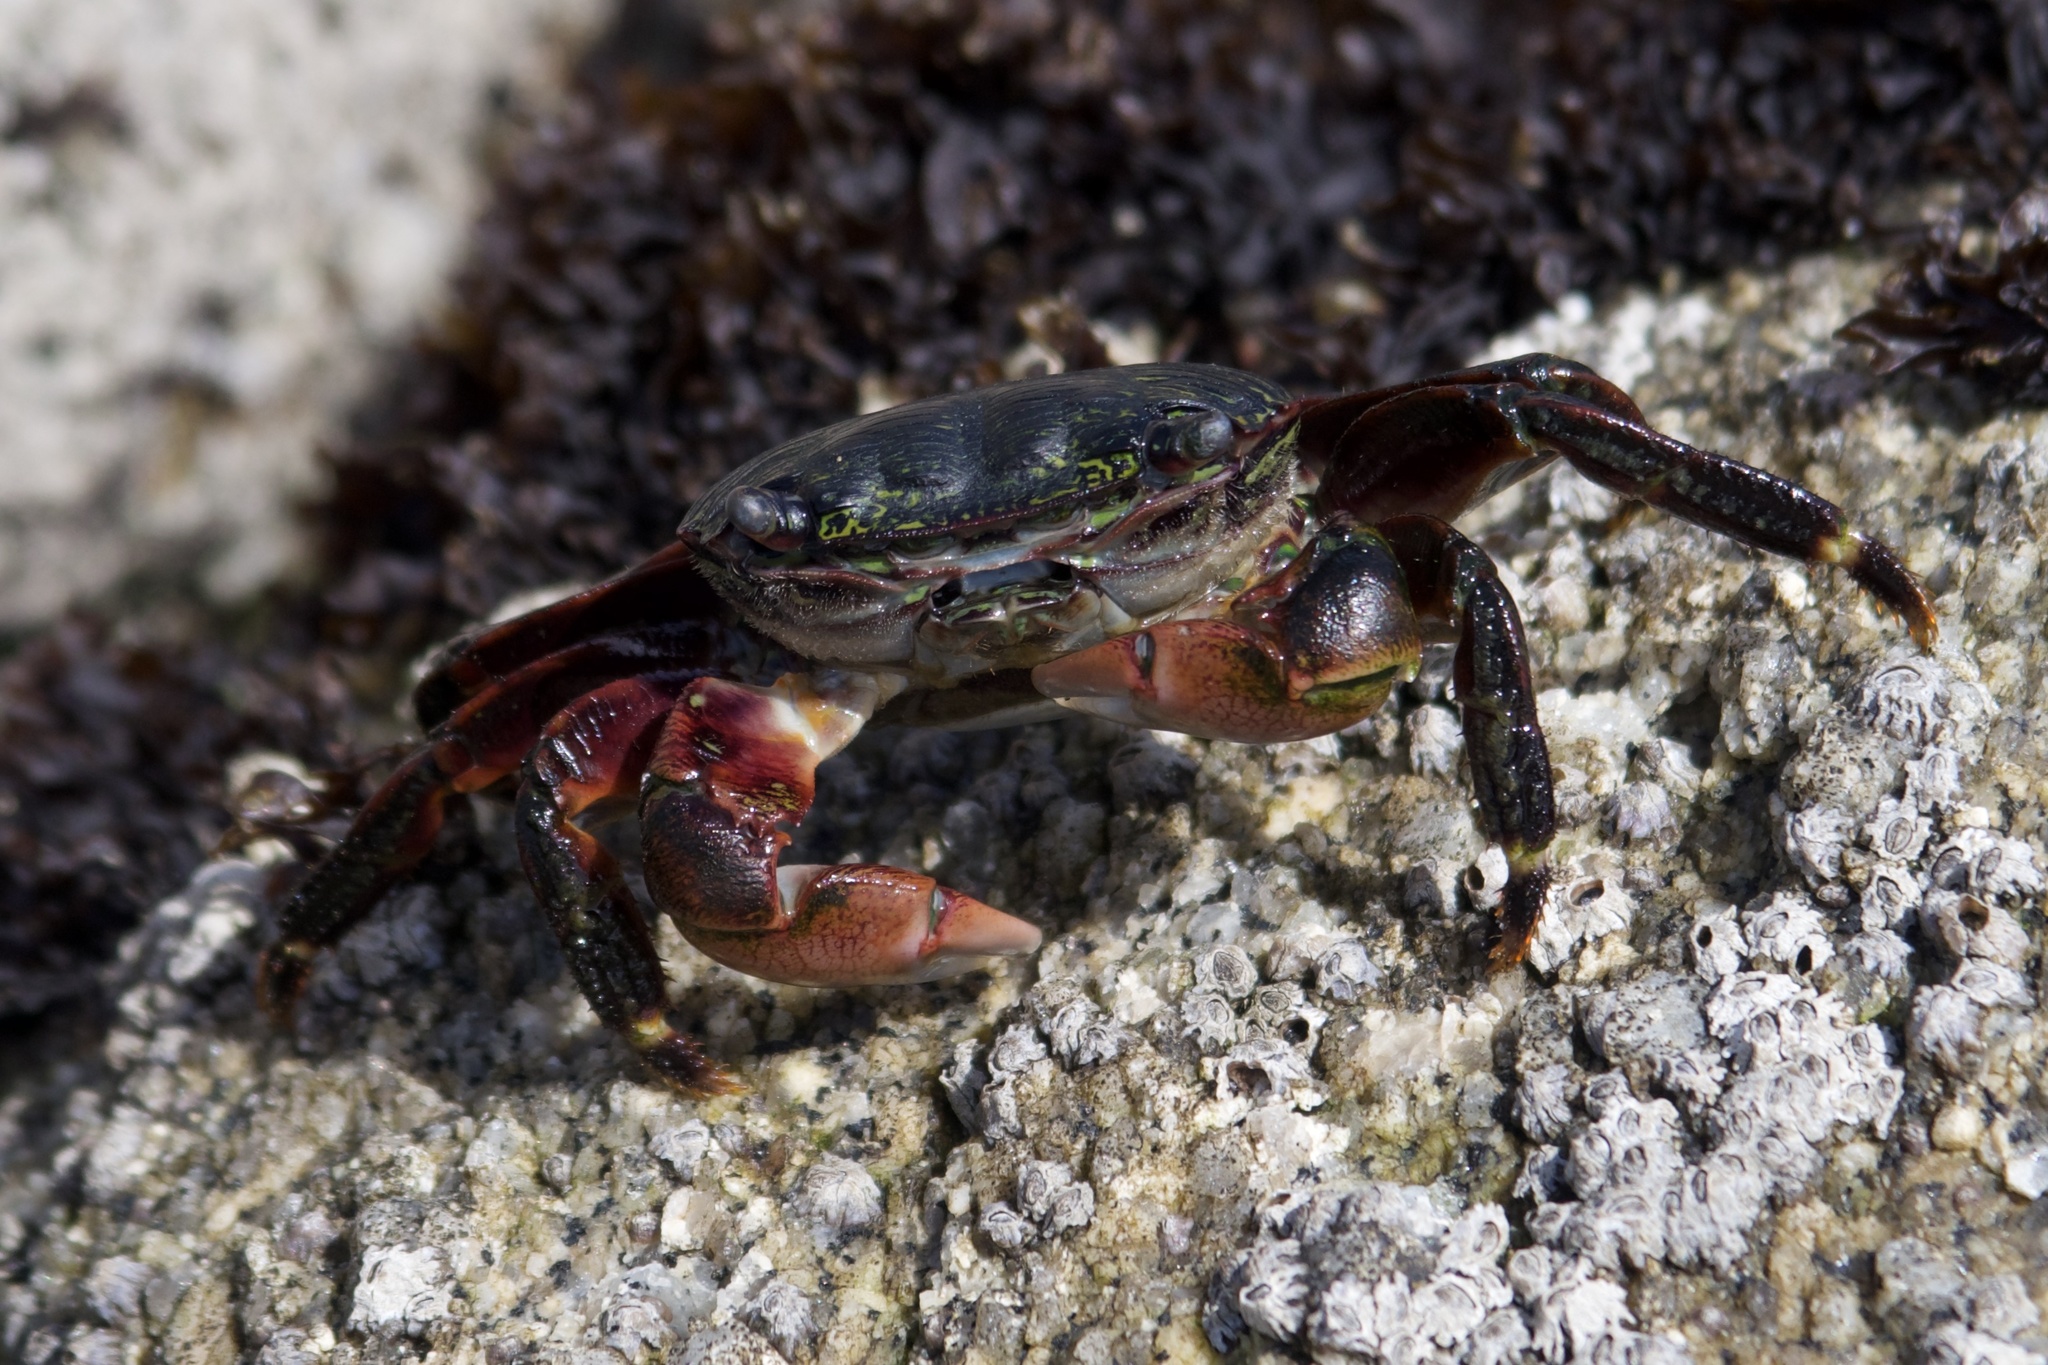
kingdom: Animalia
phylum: Arthropoda
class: Malacostraca
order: Decapoda
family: Grapsidae
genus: Pachygrapsus
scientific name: Pachygrapsus crassipes
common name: Striped shore crab
